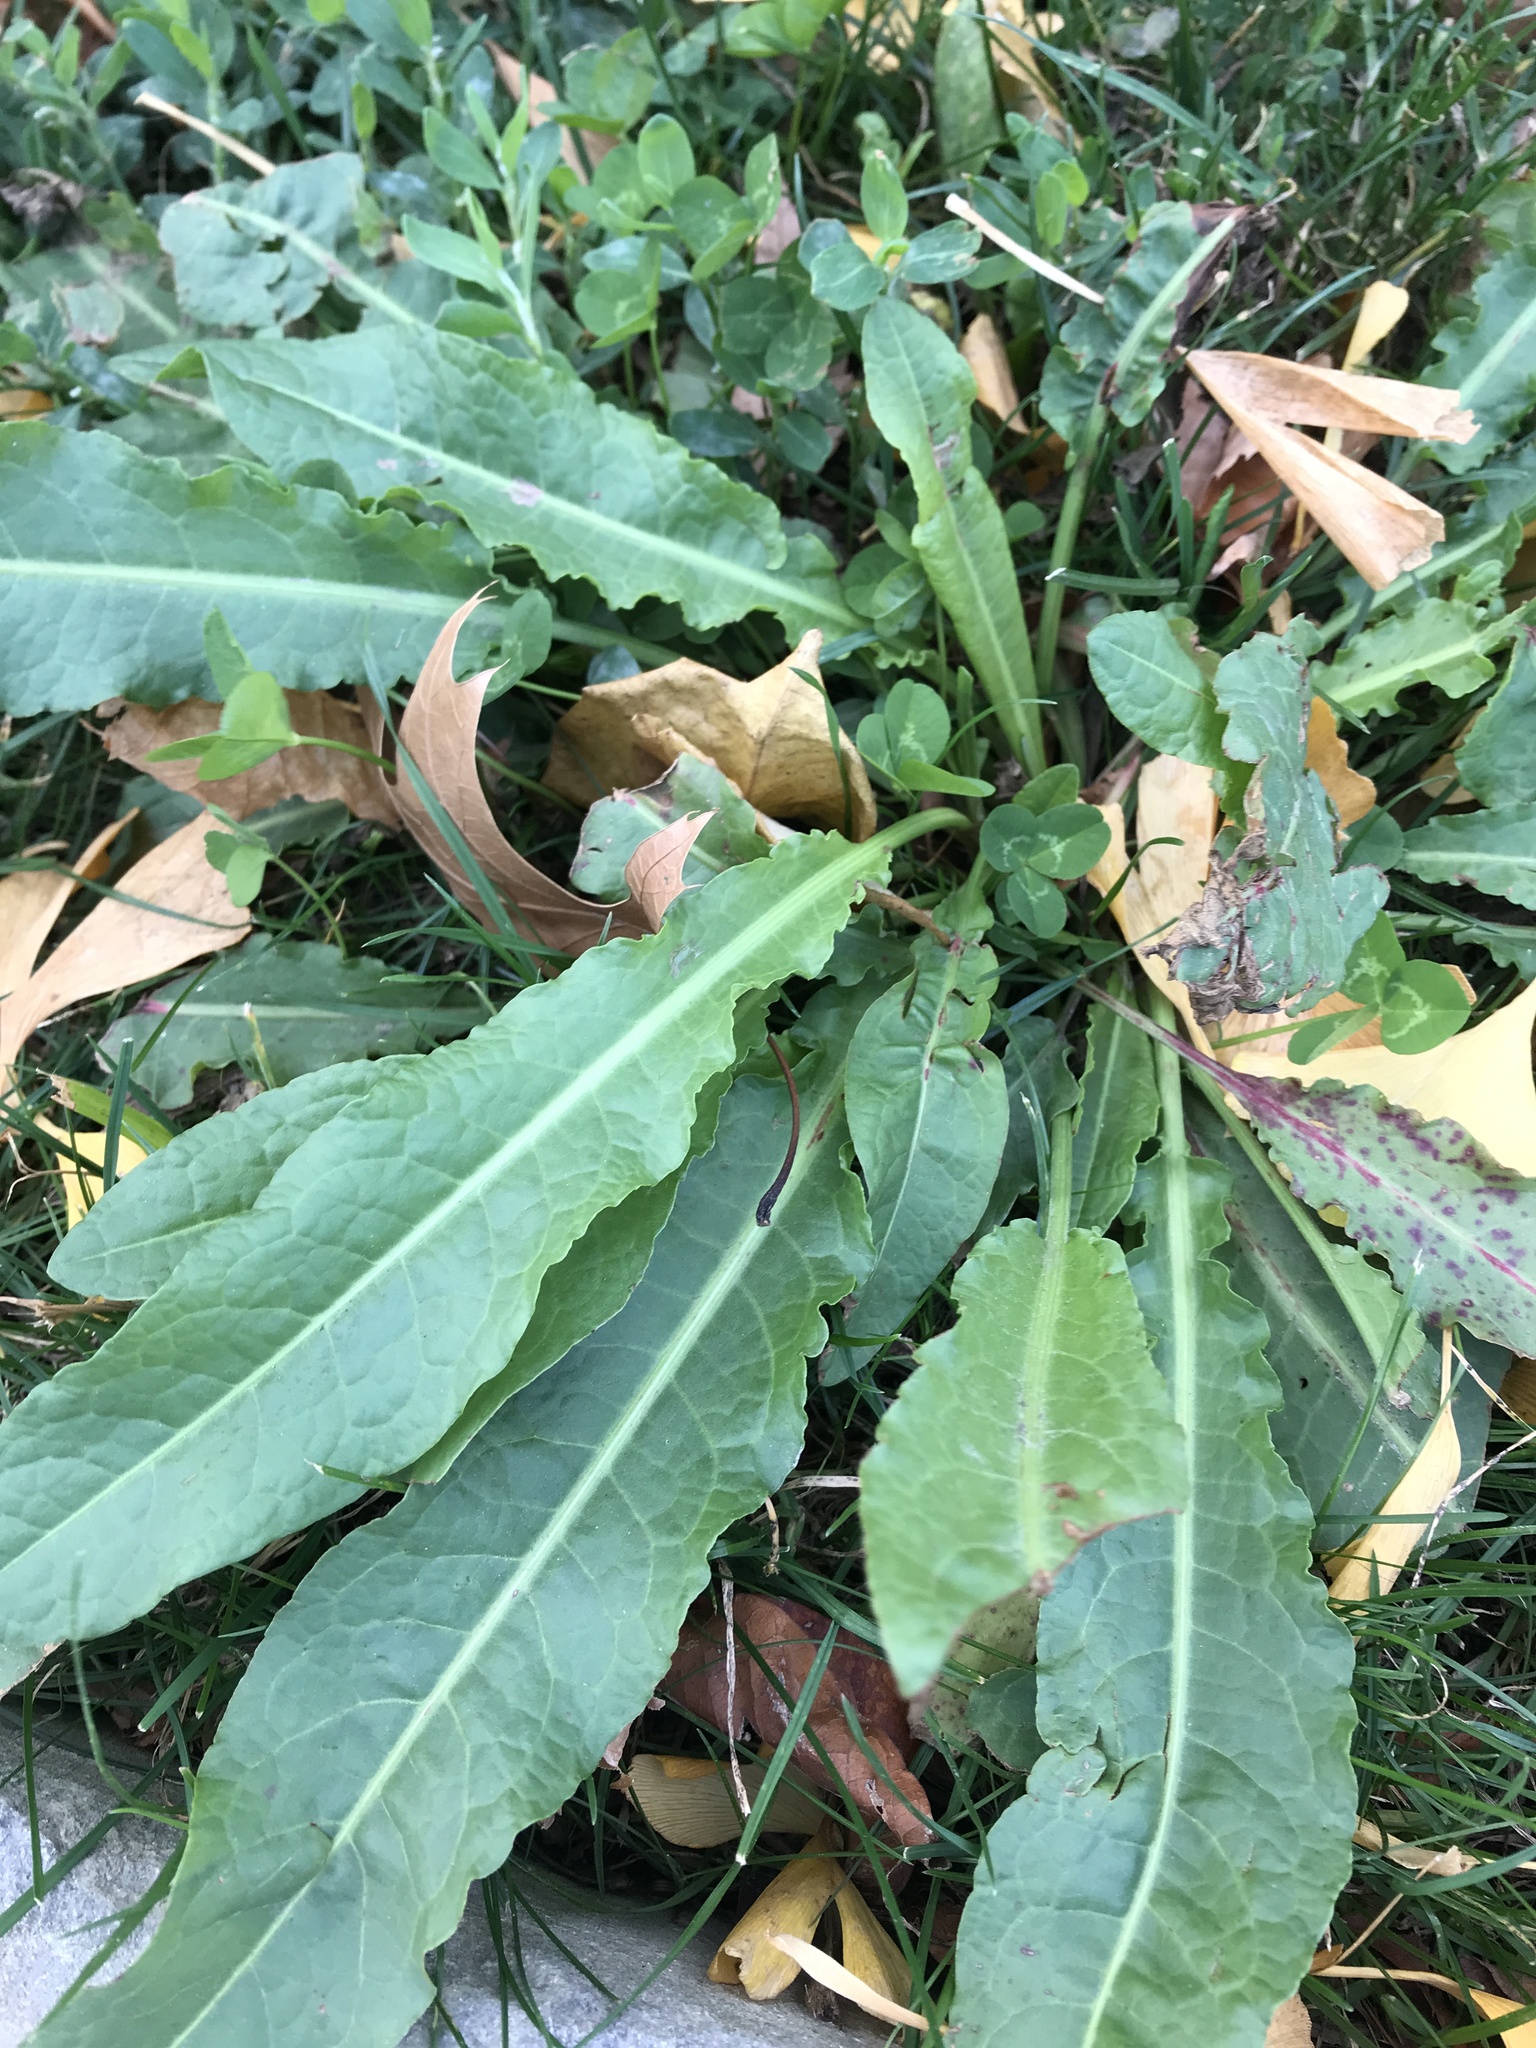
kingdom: Plantae
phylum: Tracheophyta
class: Magnoliopsida
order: Caryophyllales
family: Polygonaceae
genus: Rumex
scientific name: Rumex crispus
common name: Curled dock
